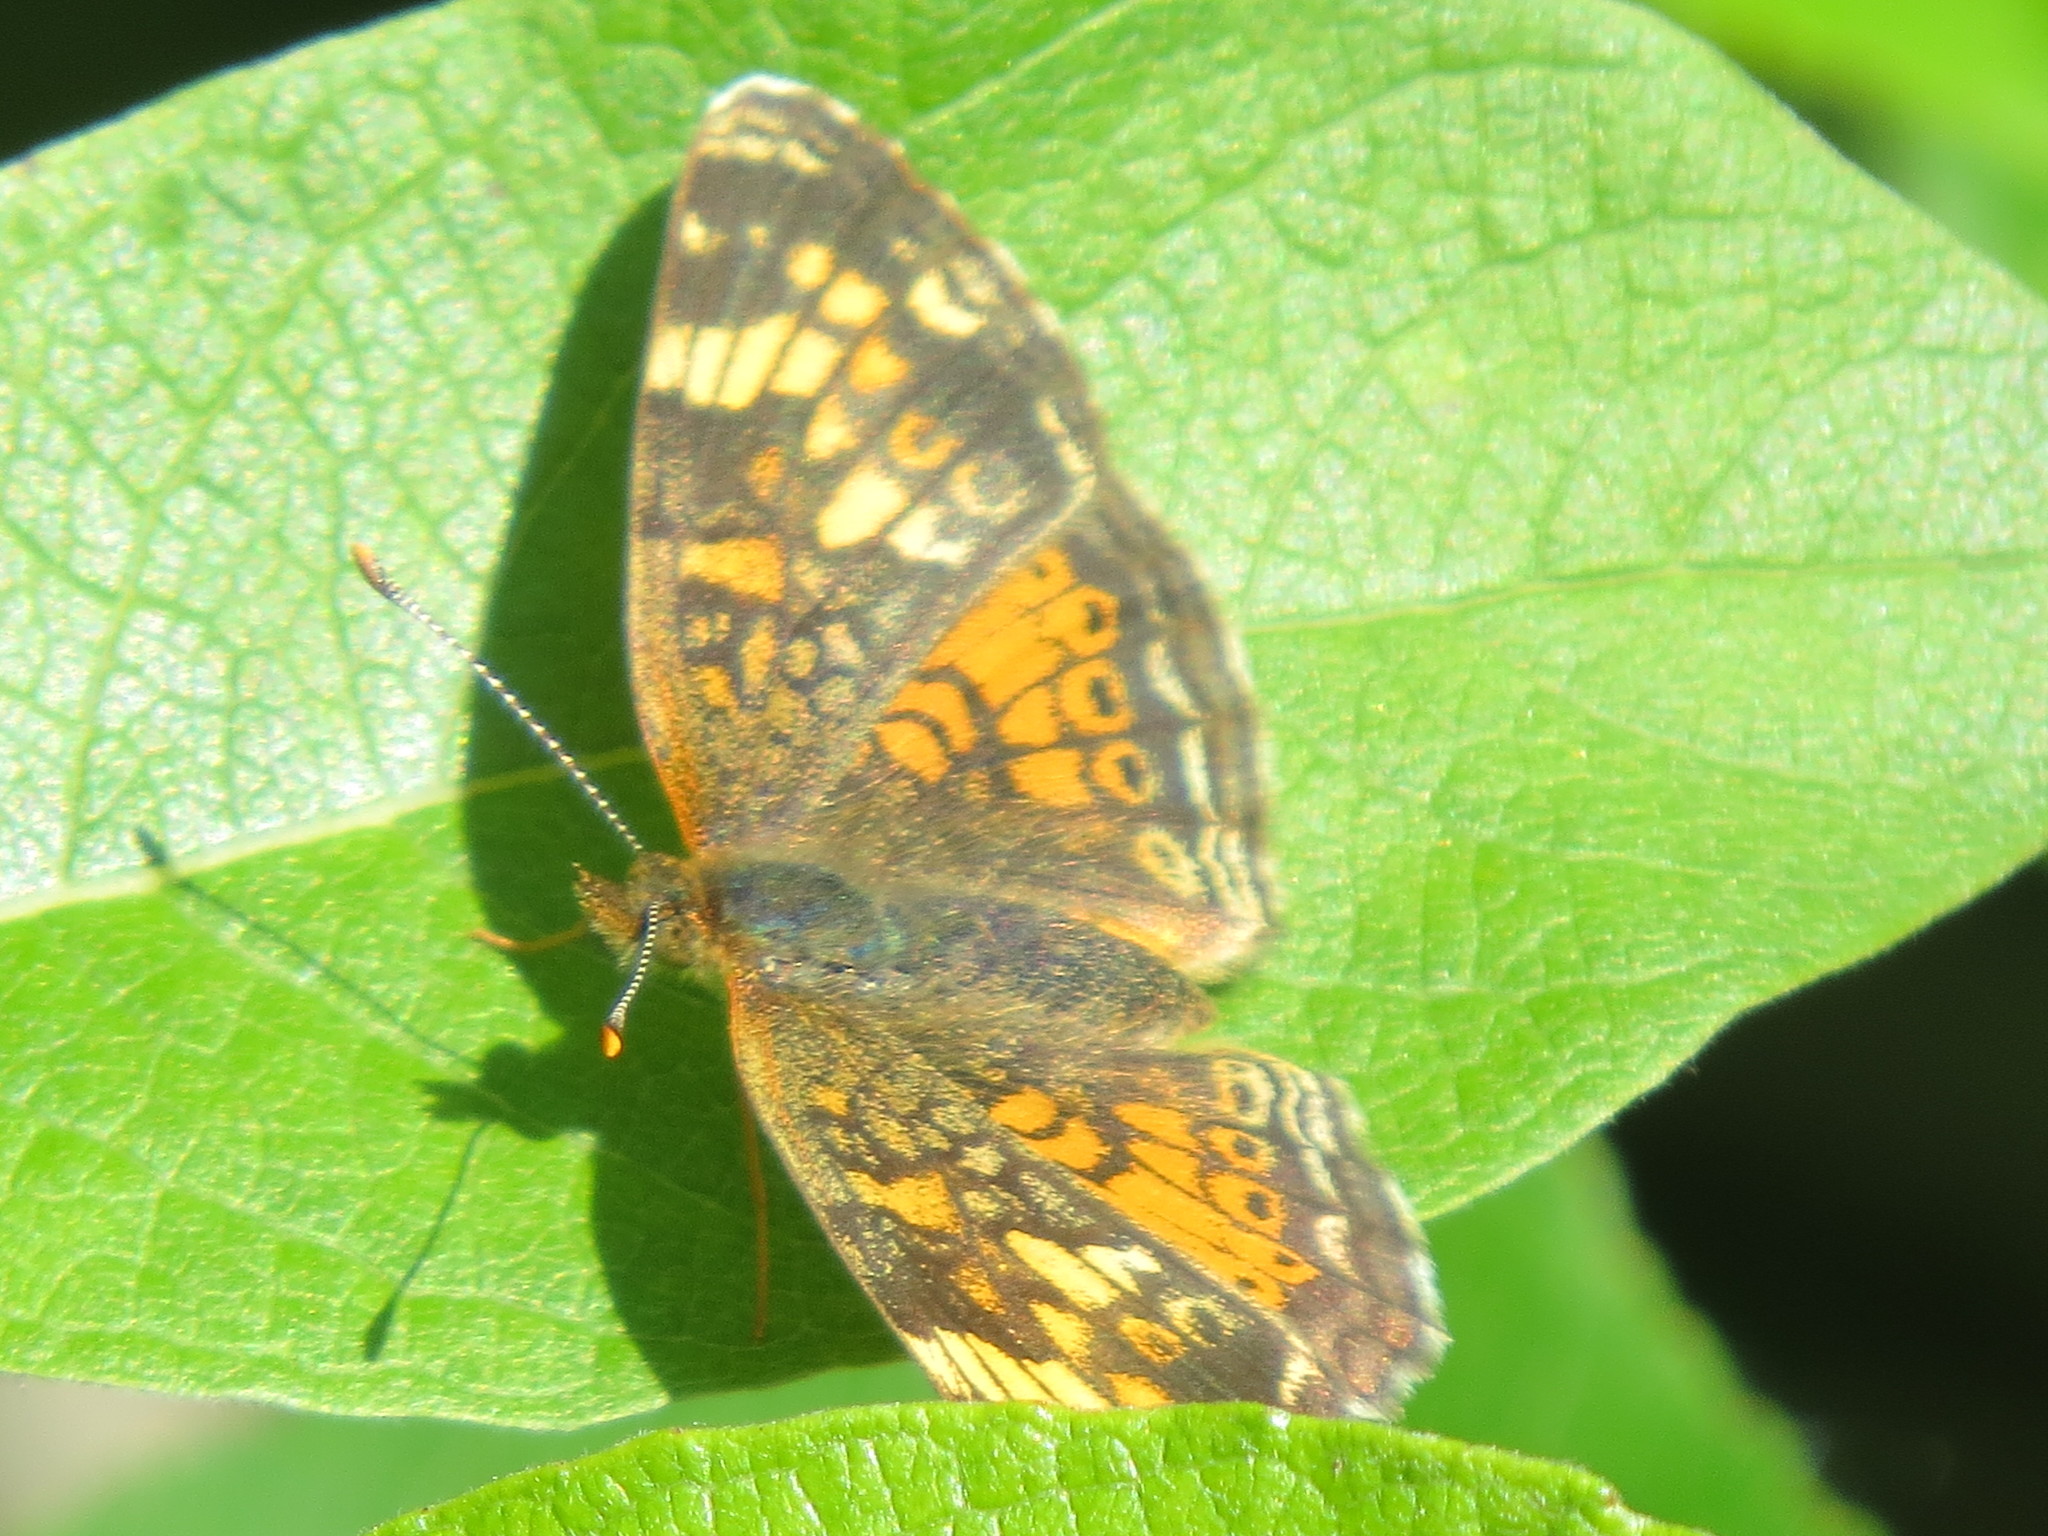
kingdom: Animalia
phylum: Arthropoda
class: Insecta
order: Lepidoptera
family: Nymphalidae
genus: Phyciodes
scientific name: Phyciodes tharos
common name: Pearl crescent
